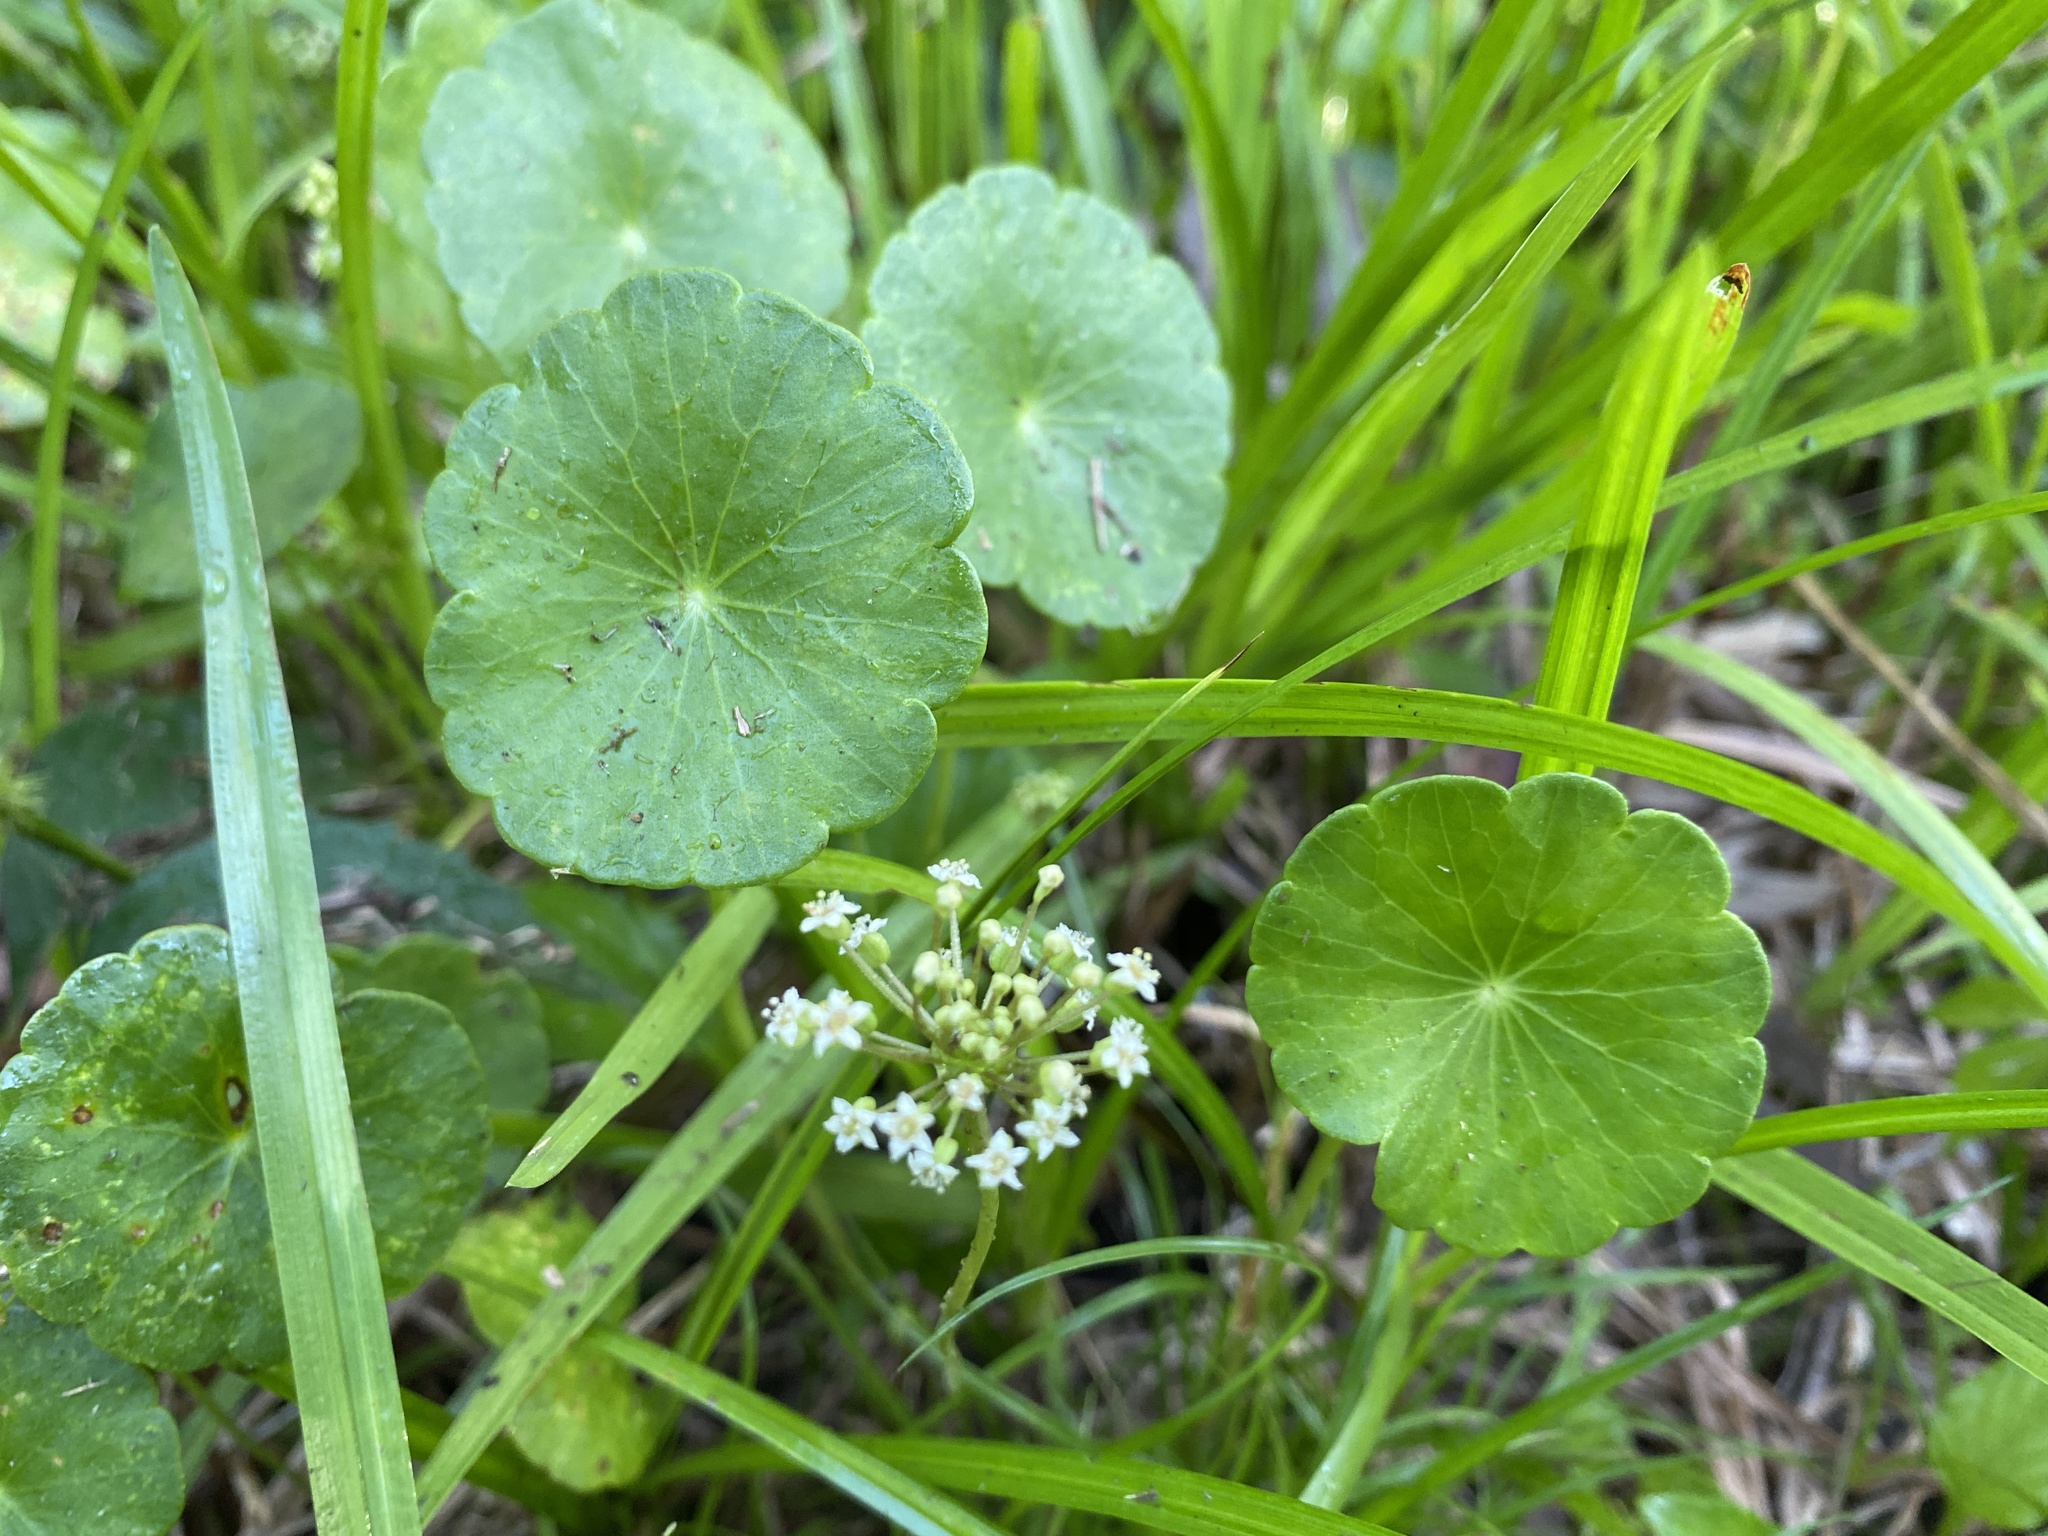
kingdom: Plantae
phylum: Tracheophyta
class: Magnoliopsida
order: Apiales
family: Araliaceae
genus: Hydrocotyle
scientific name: Hydrocotyle umbellata
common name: Water pennywort
